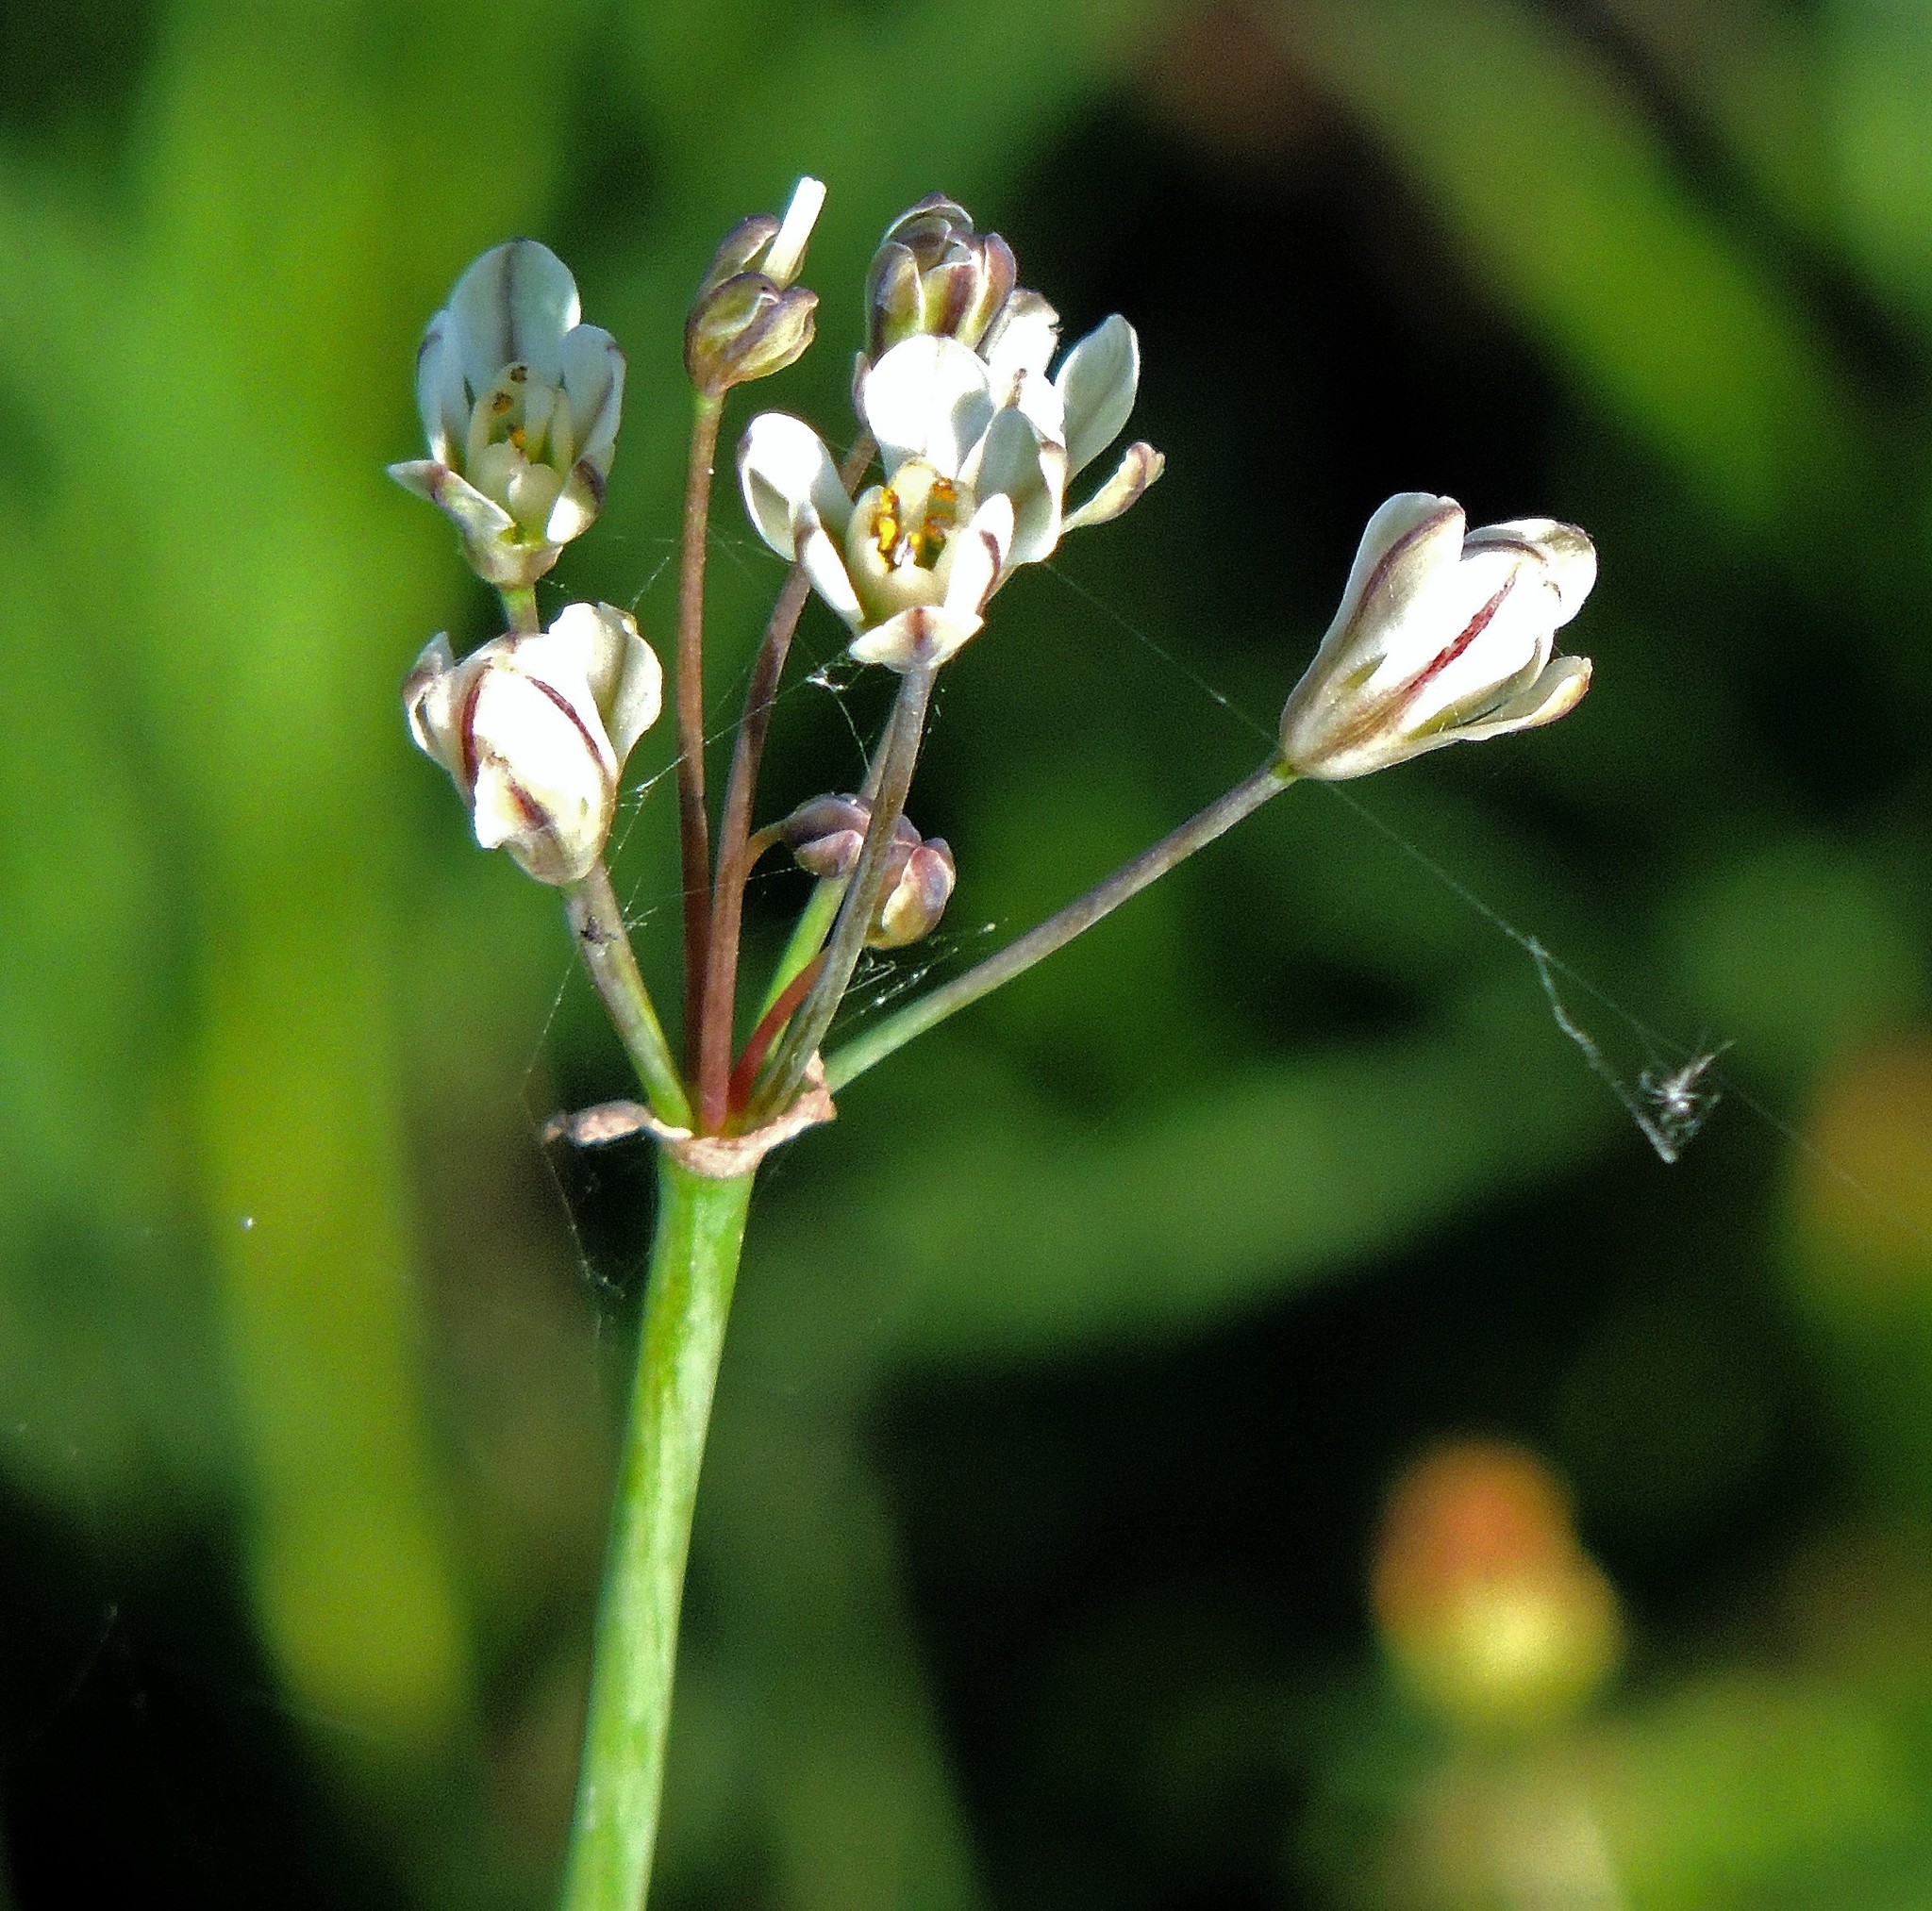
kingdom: Plantae
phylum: Tracheophyta
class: Liliopsida
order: Asparagales
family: Amaryllidaceae
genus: Nothoscordum
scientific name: Nothoscordum gracile
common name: Slender false garlic
